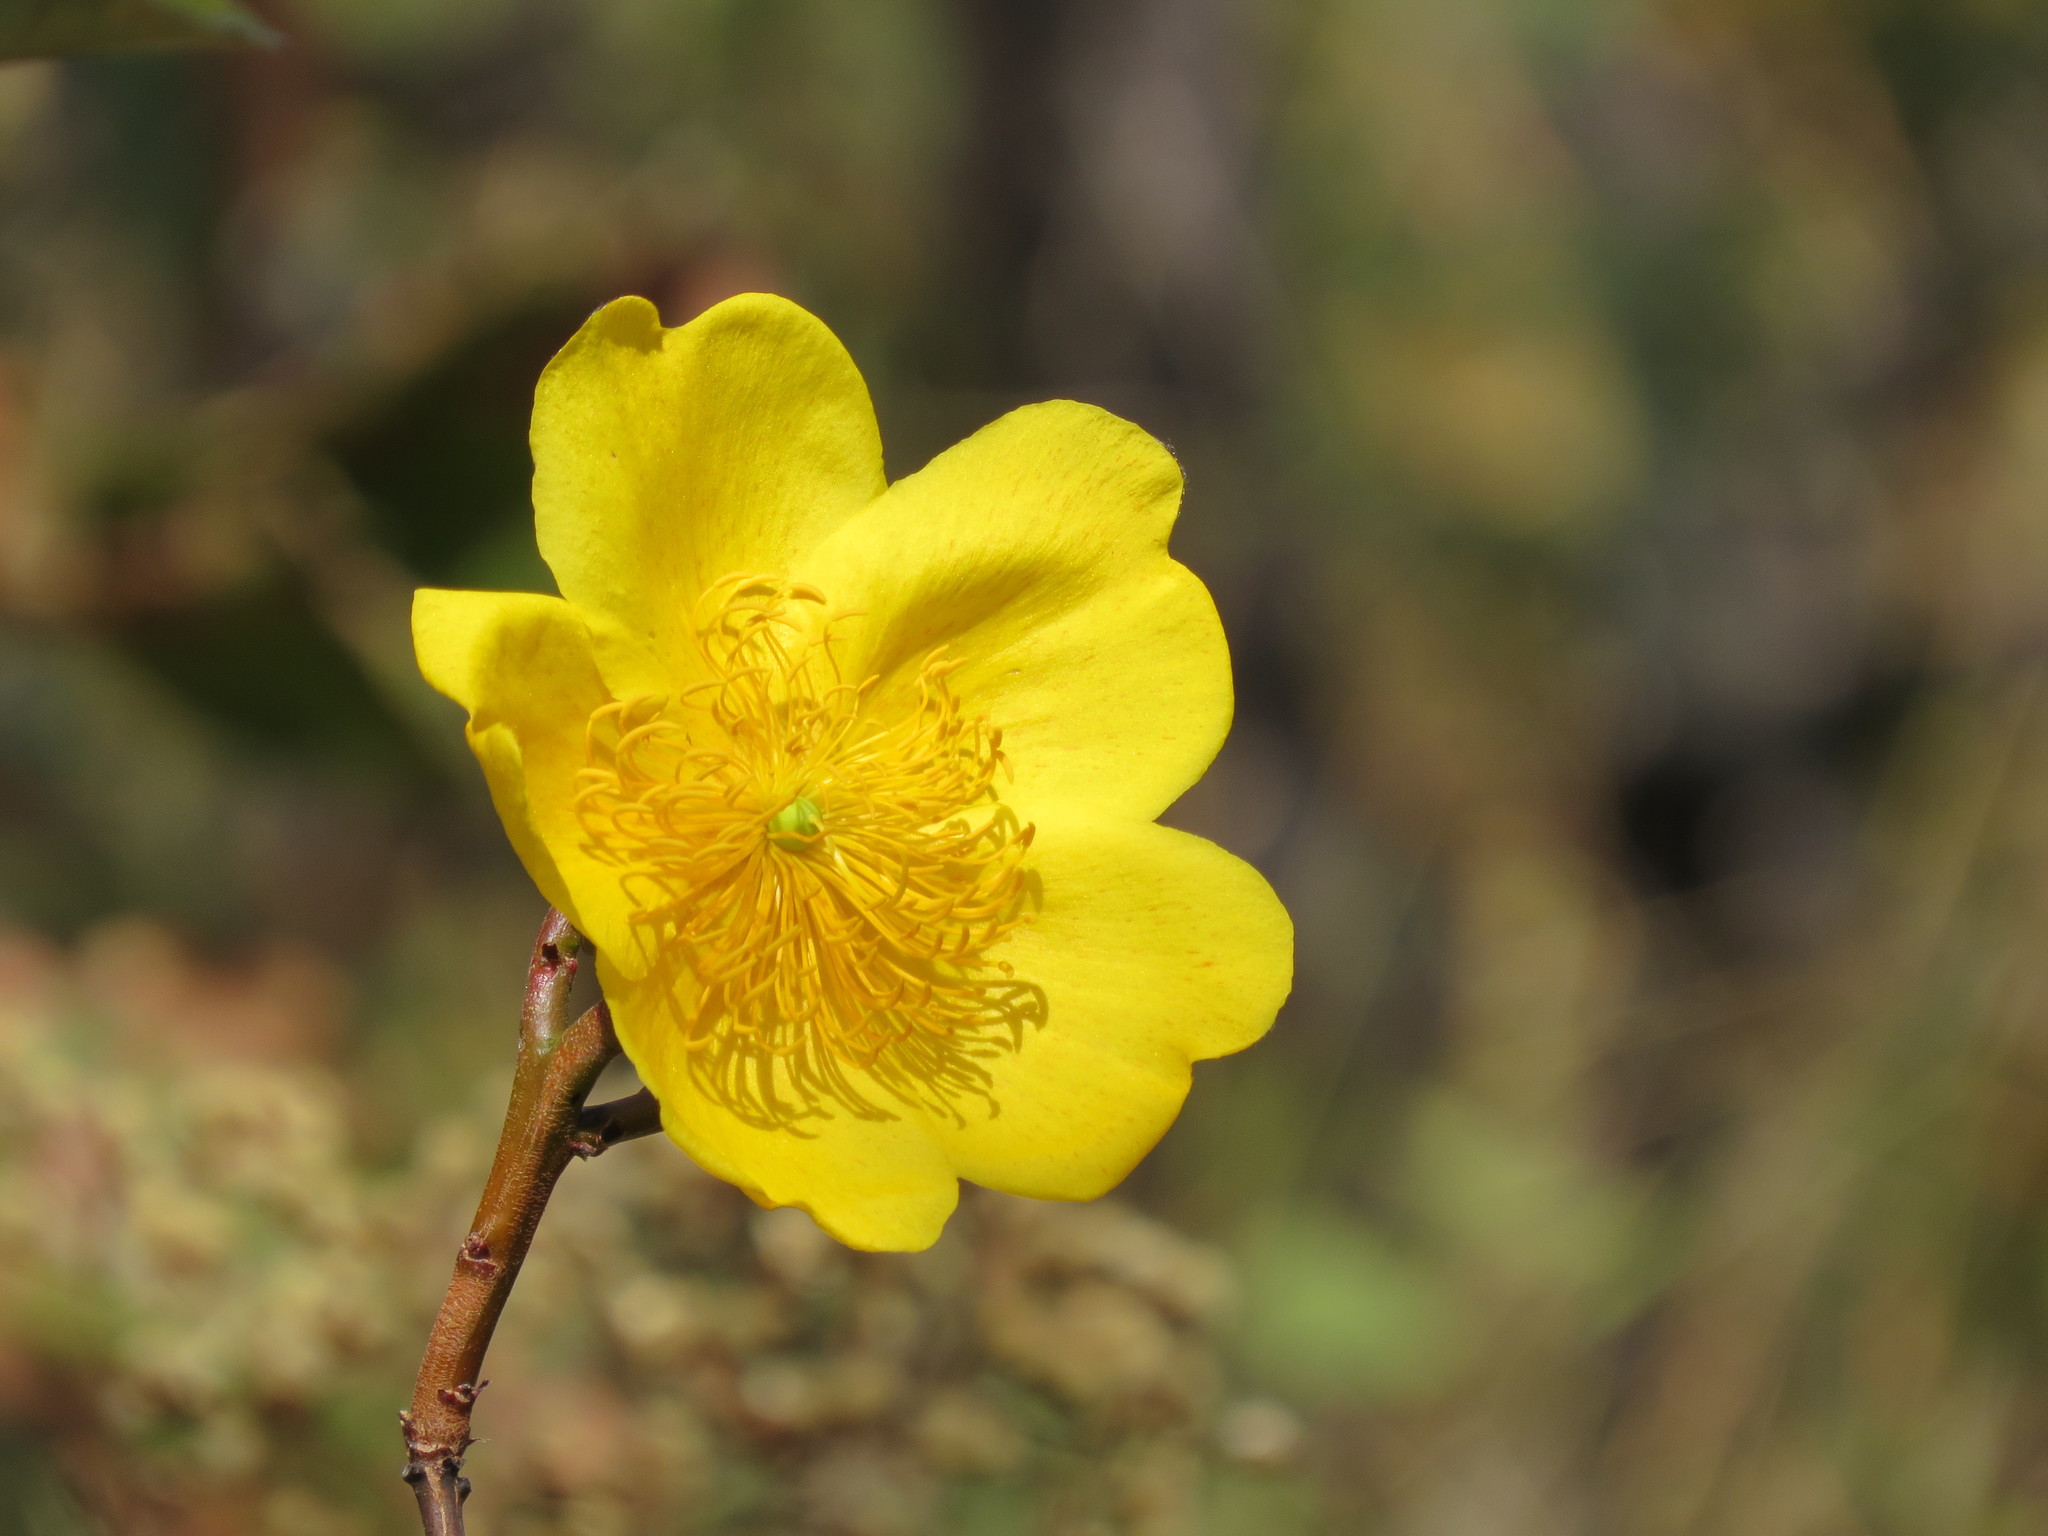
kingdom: Plantae
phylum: Tracheophyta
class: Magnoliopsida
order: Malvales
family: Cochlospermaceae
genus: Cochlospermum
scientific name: Cochlospermum regium
